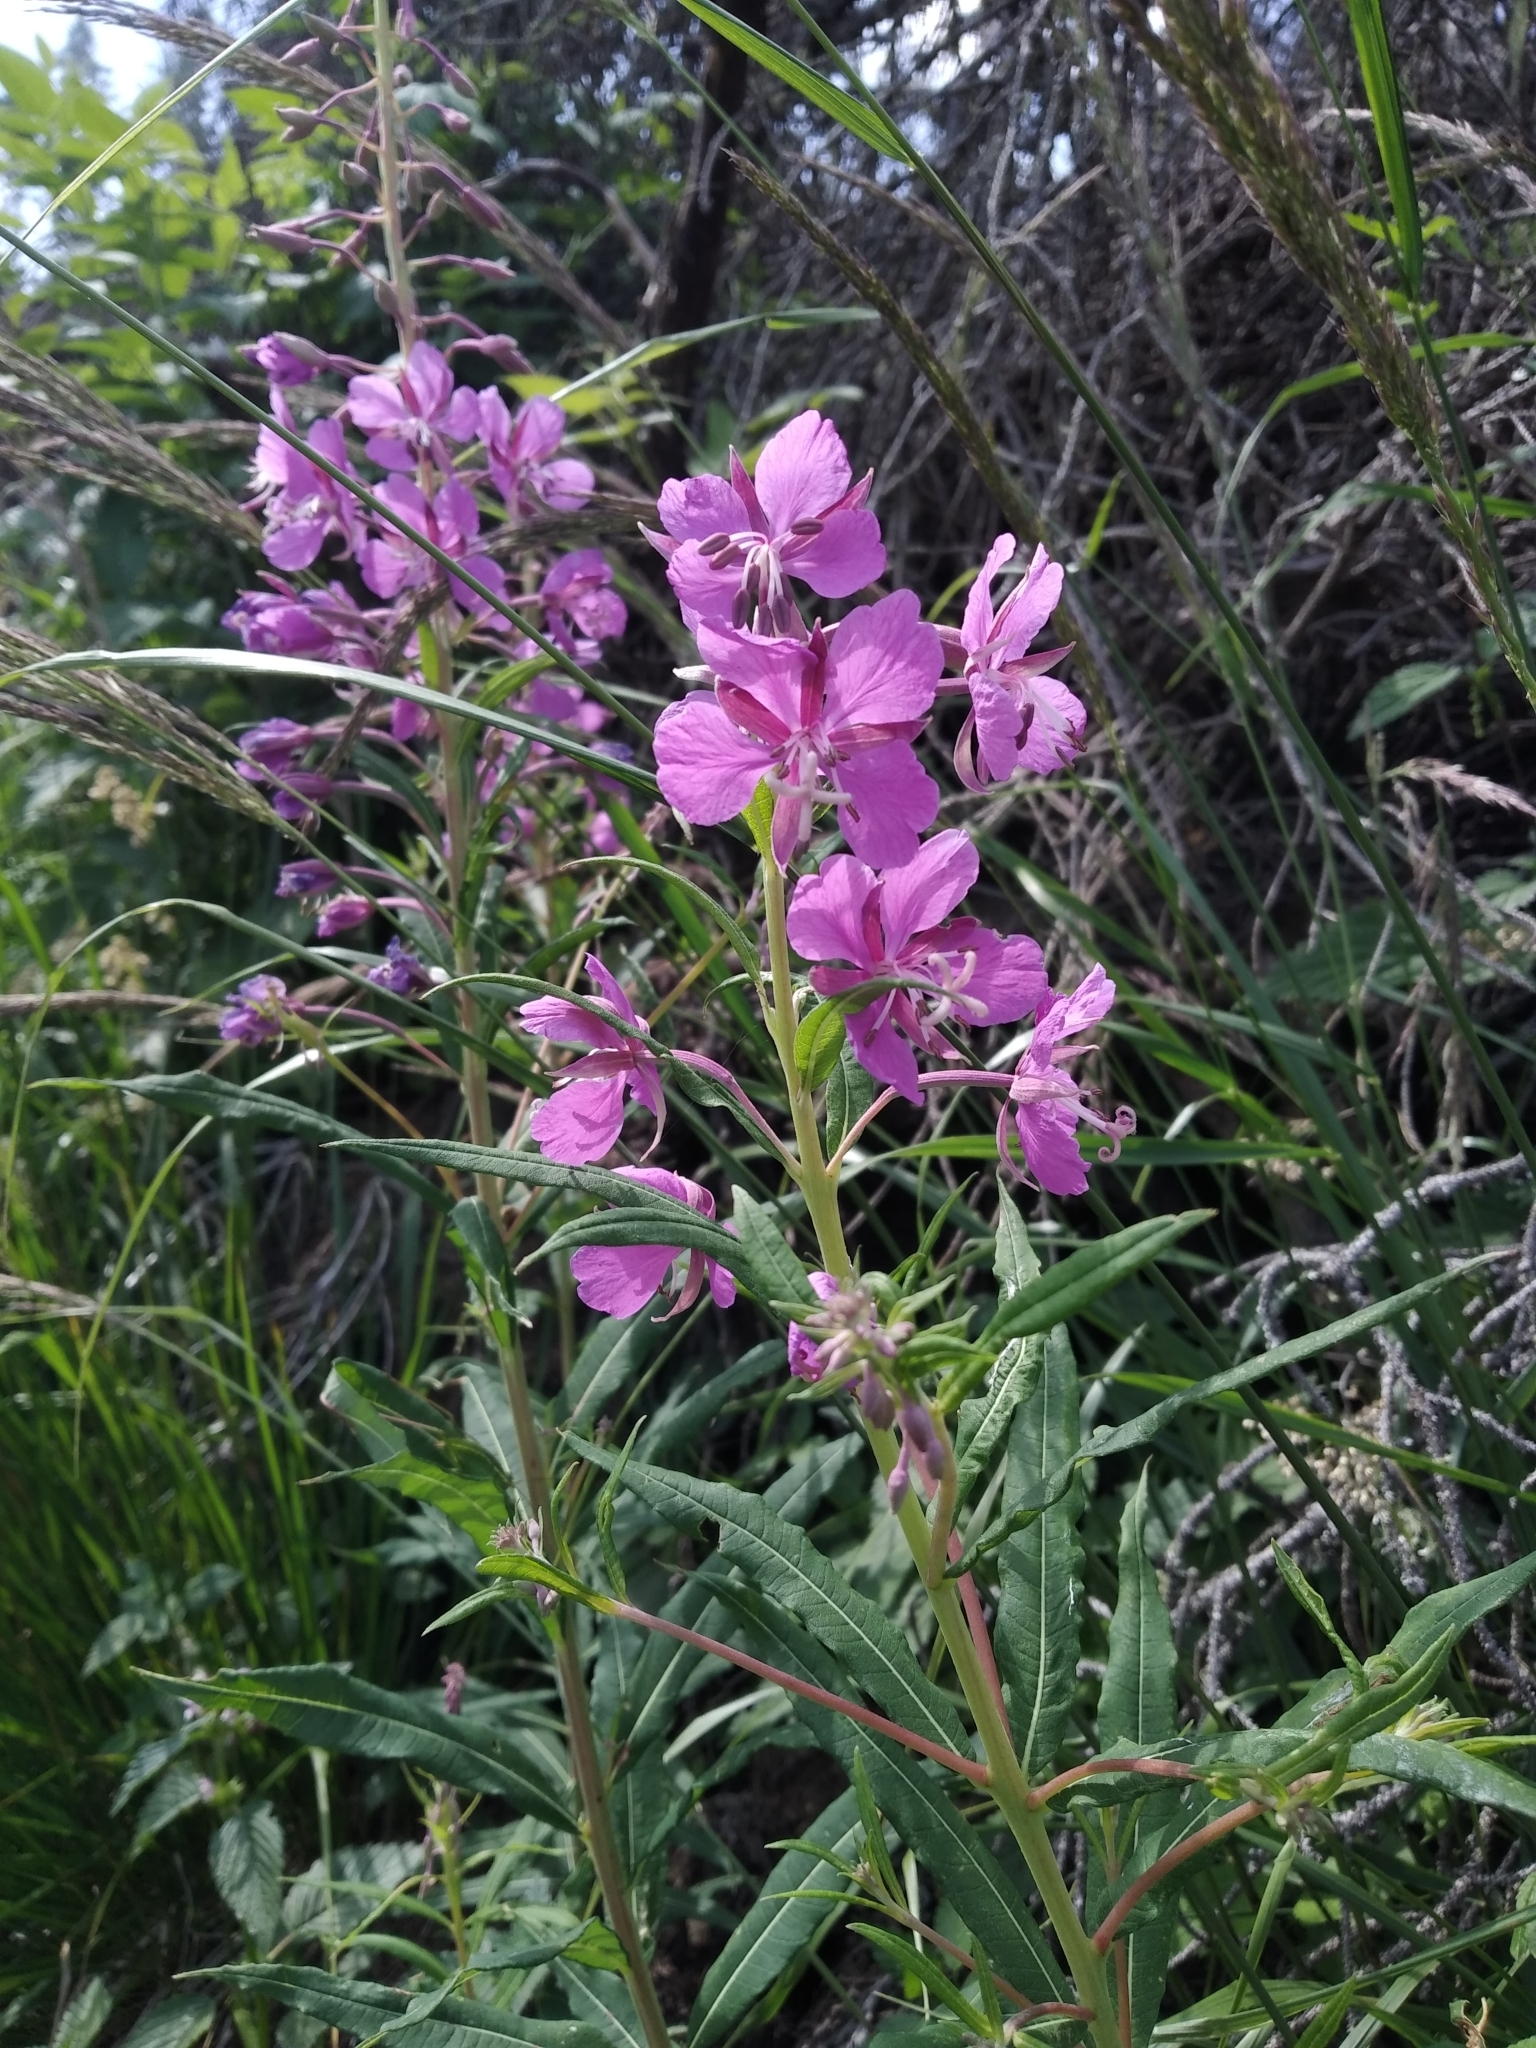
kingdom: Plantae
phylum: Tracheophyta
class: Magnoliopsida
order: Myrtales
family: Onagraceae
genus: Chamaenerion
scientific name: Chamaenerion angustifolium
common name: Fireweed
